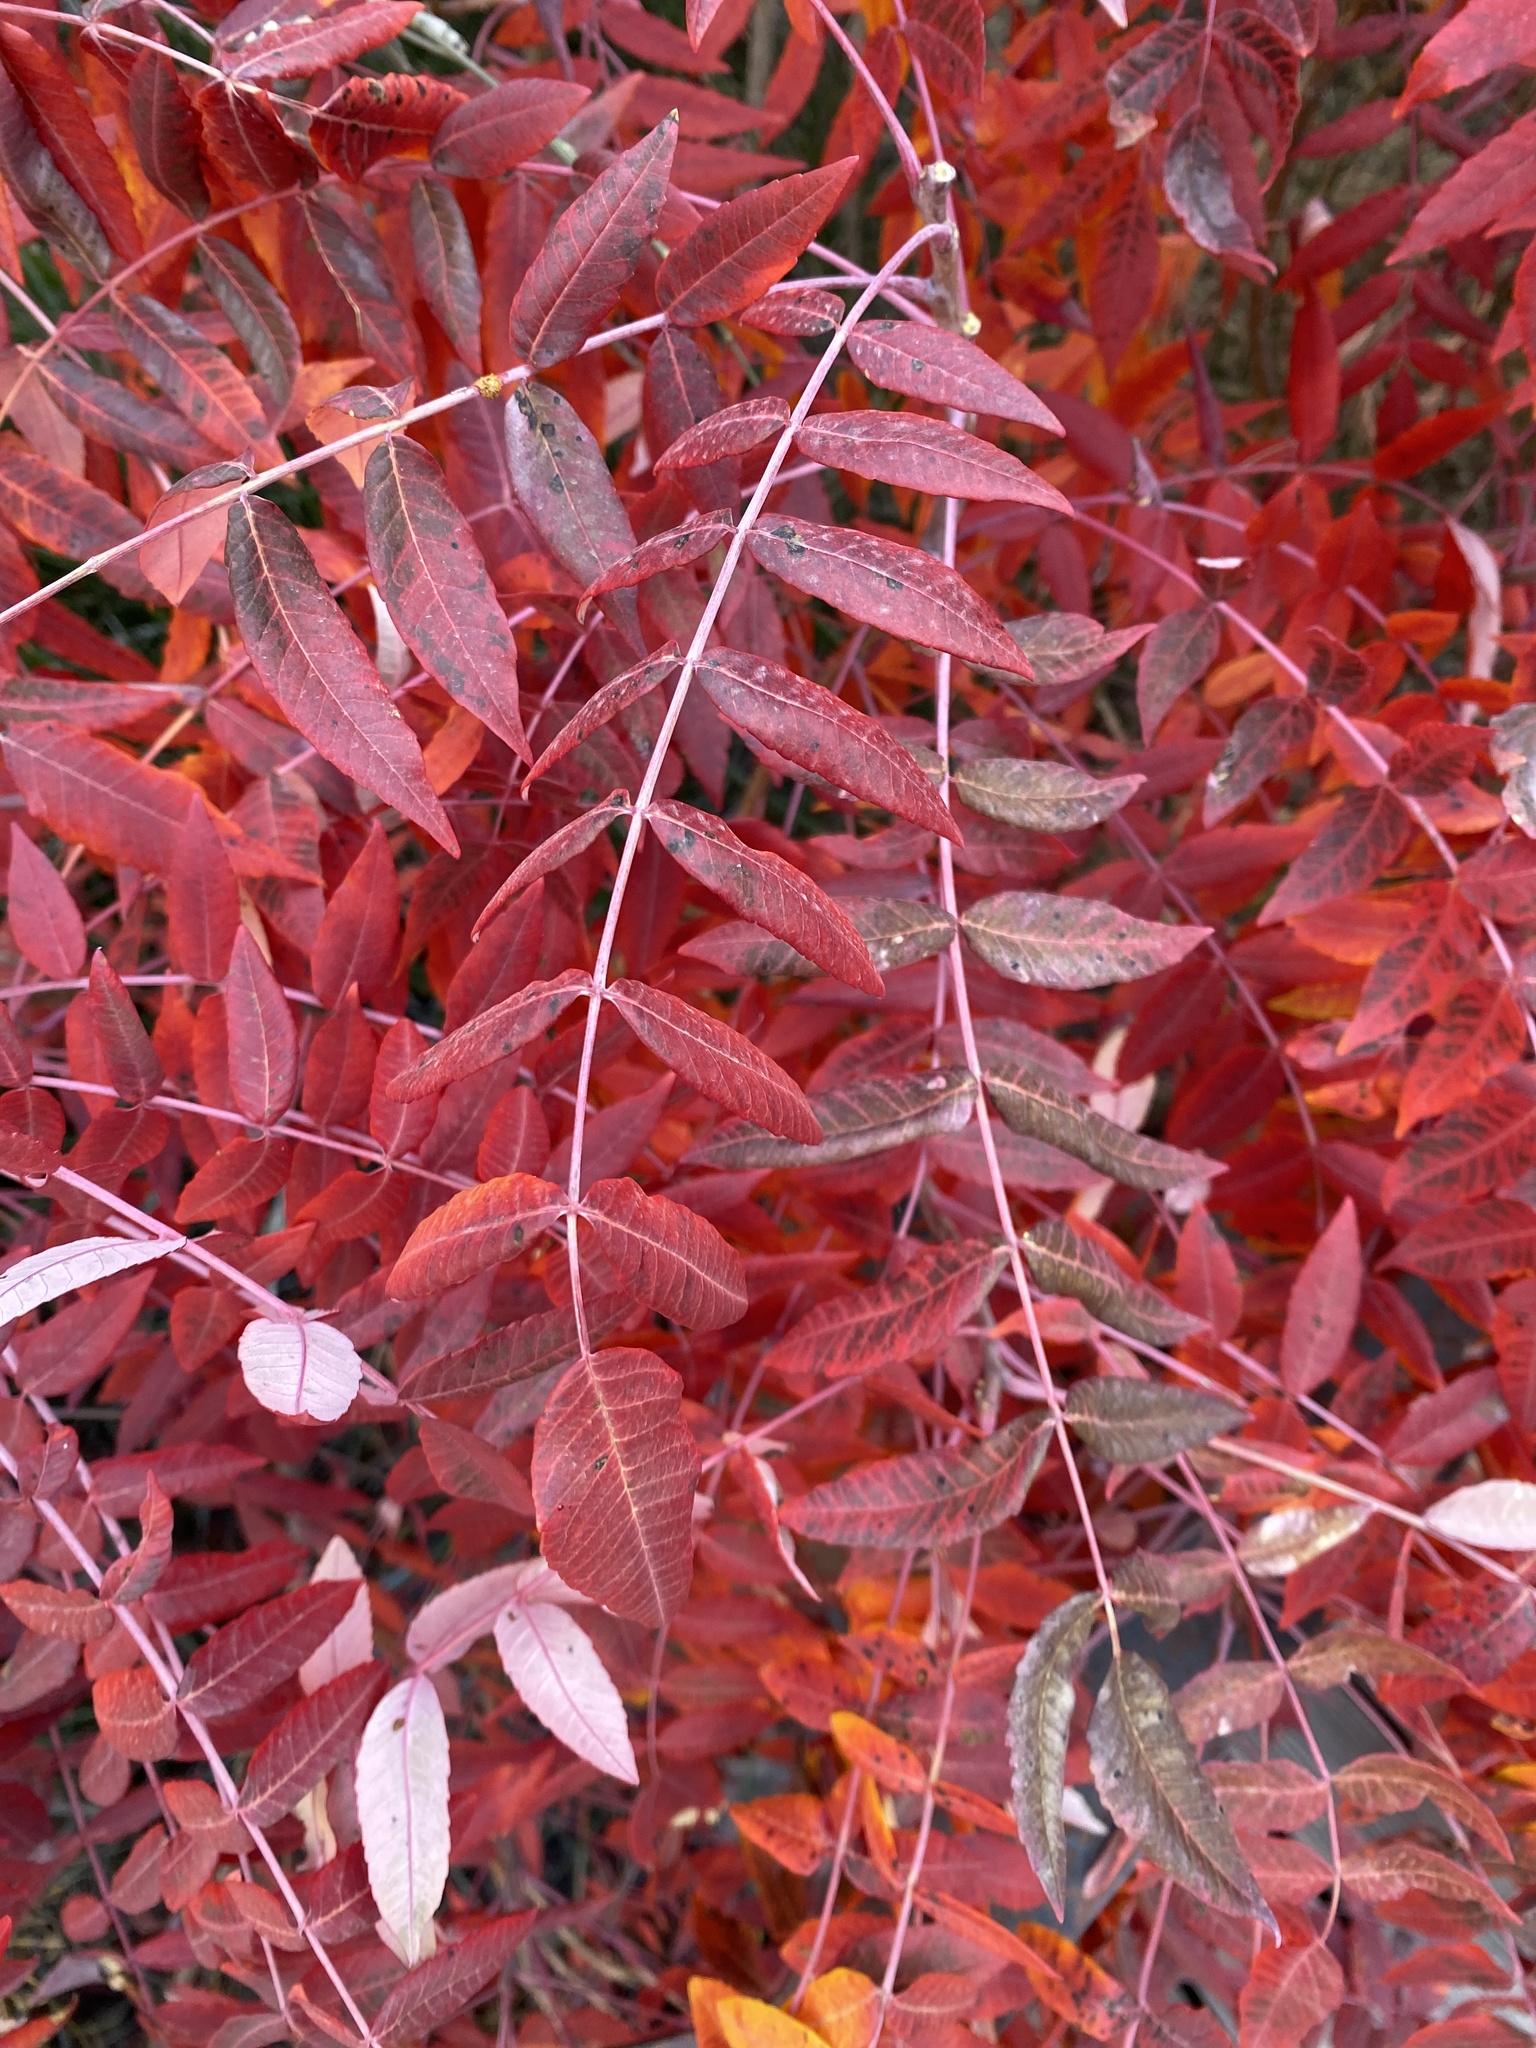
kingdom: Plantae
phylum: Tracheophyta
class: Magnoliopsida
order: Sapindales
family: Anacardiaceae
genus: Rhus
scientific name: Rhus glabra
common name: Scarlet sumac
